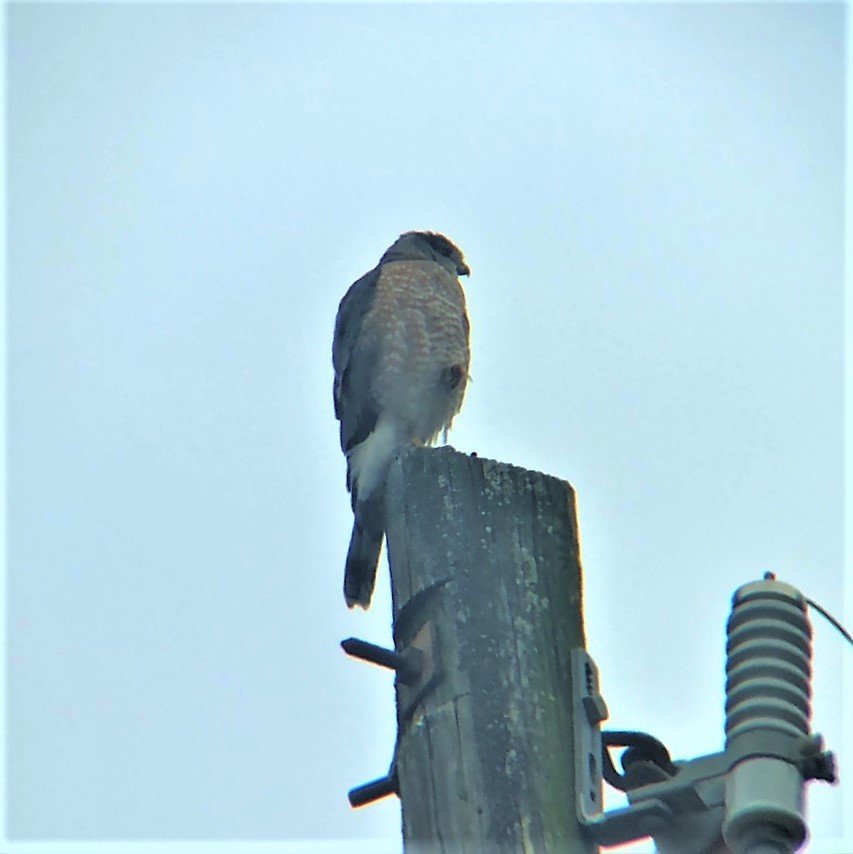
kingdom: Animalia
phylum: Chordata
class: Aves
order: Accipitriformes
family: Accipitridae
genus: Accipiter
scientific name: Accipiter cooperii
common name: Cooper's hawk
